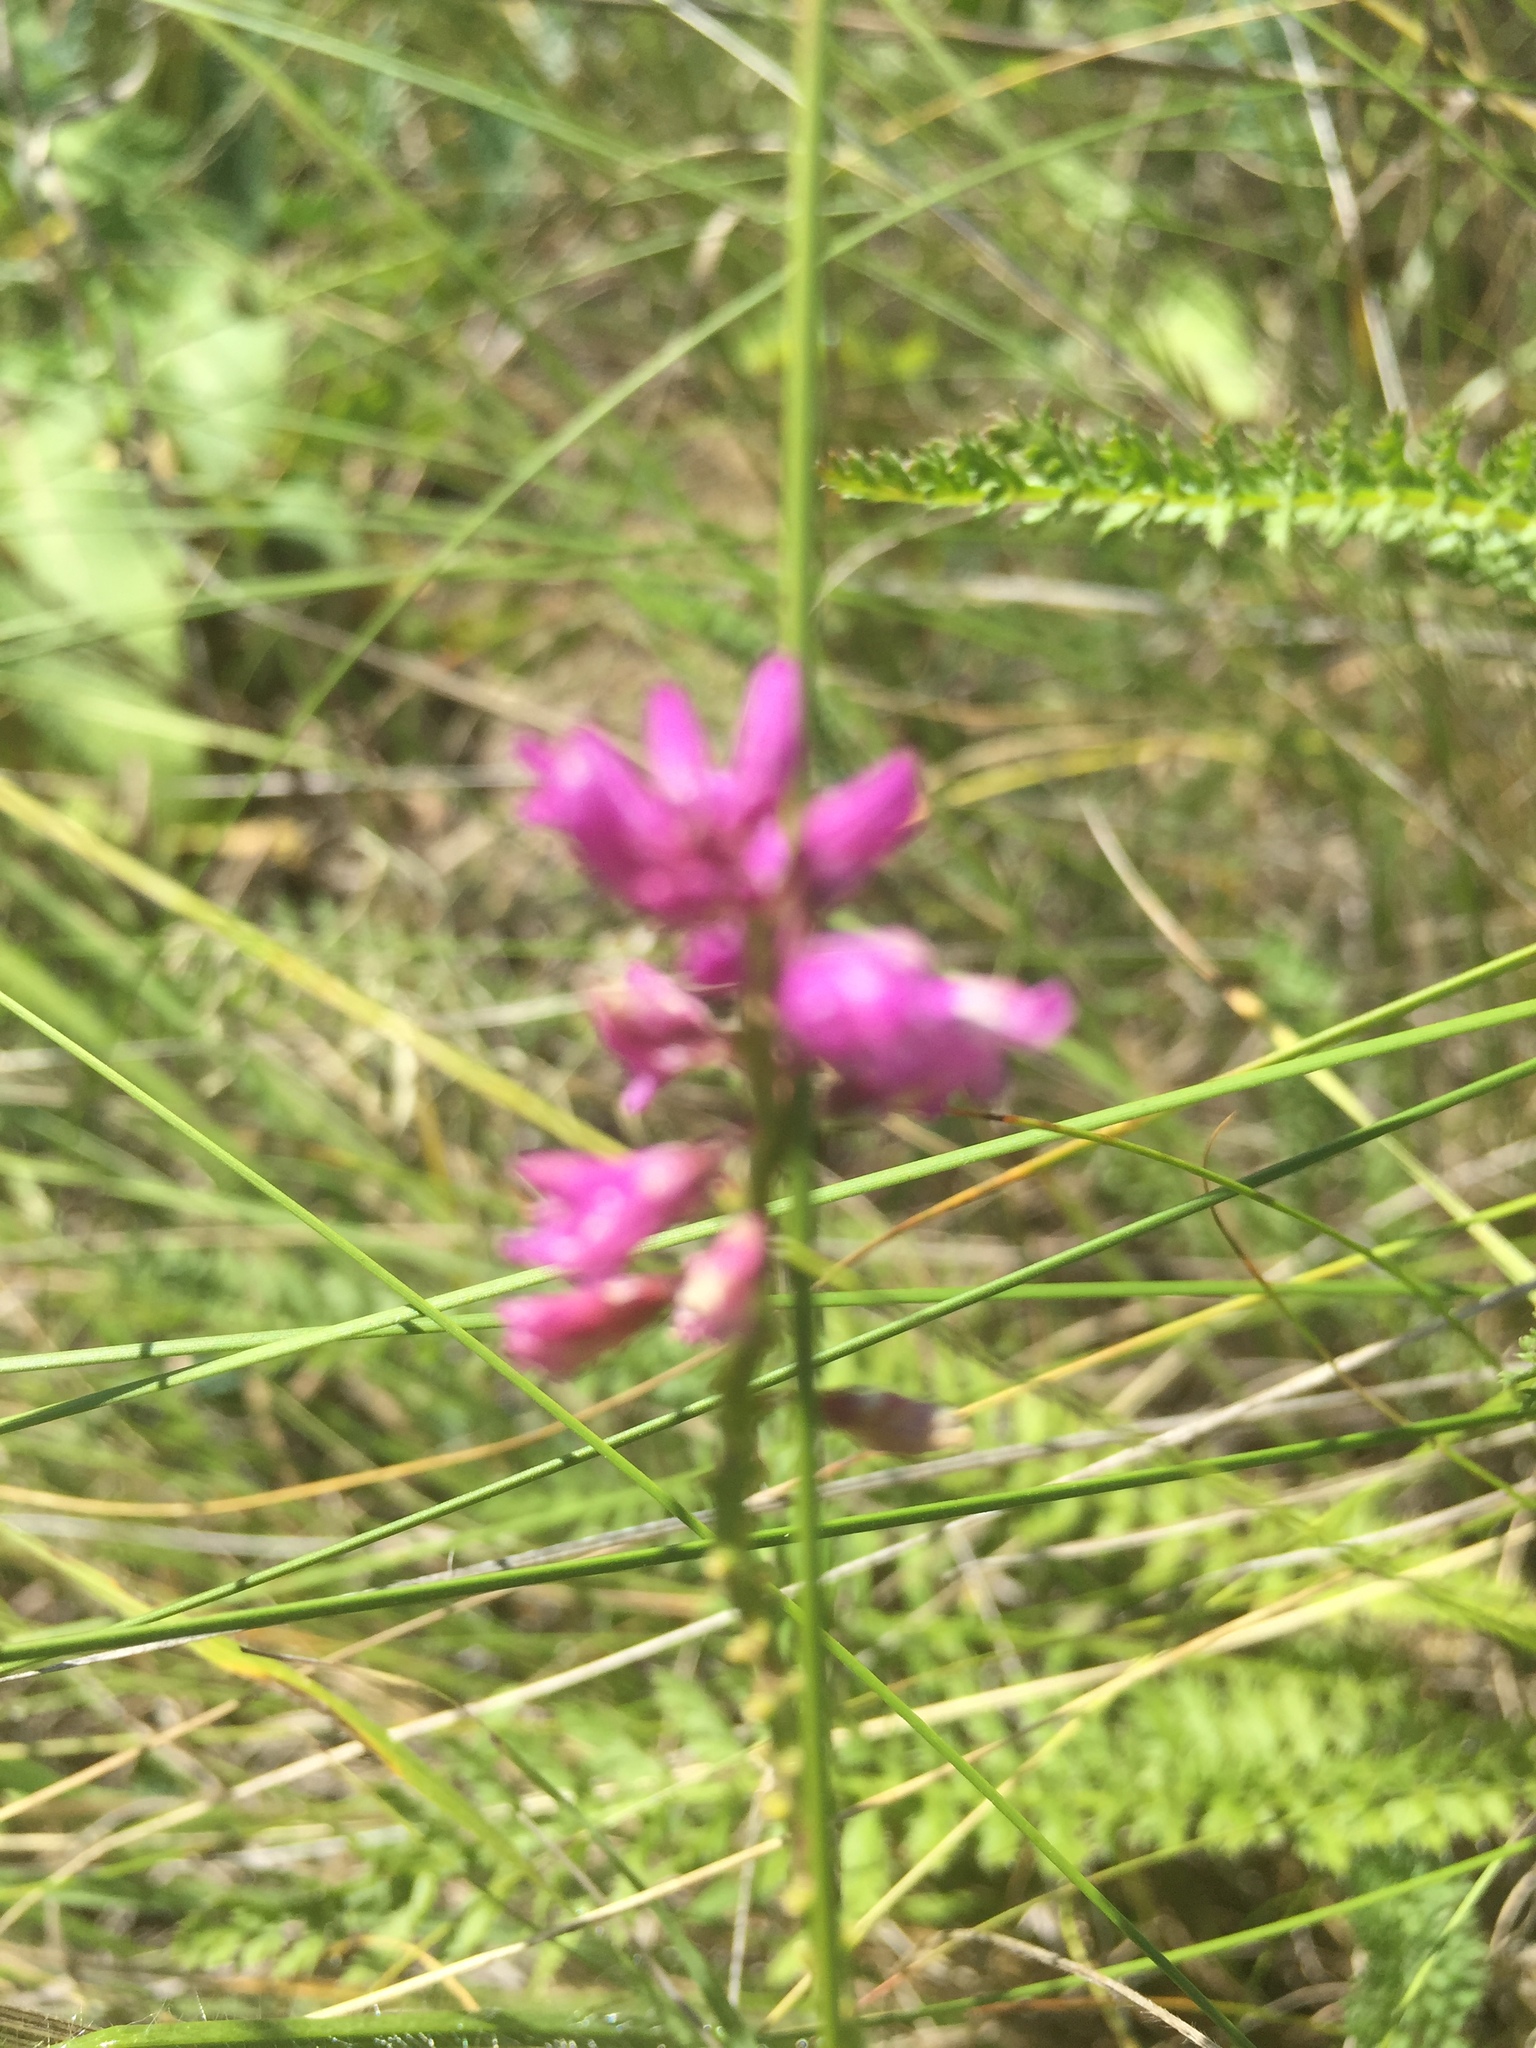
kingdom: Plantae
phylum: Tracheophyta
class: Magnoliopsida
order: Fabales
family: Polygalaceae
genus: Polygala
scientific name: Polygala nicaeensis
